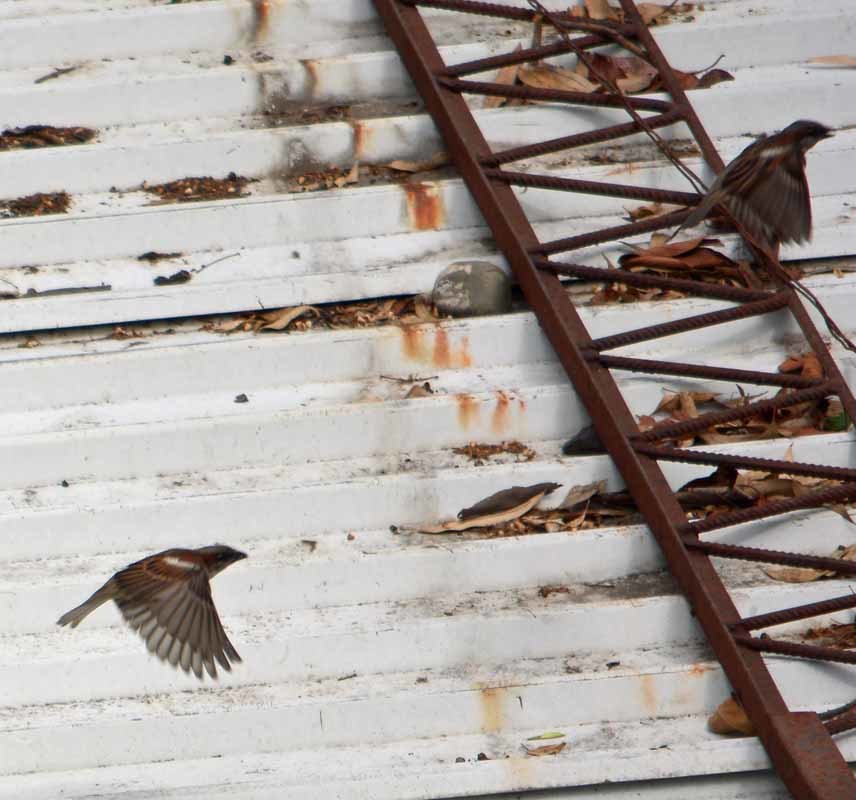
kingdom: Animalia
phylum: Chordata
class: Aves
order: Passeriformes
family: Passeridae
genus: Passer
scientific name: Passer domesticus
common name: House sparrow
